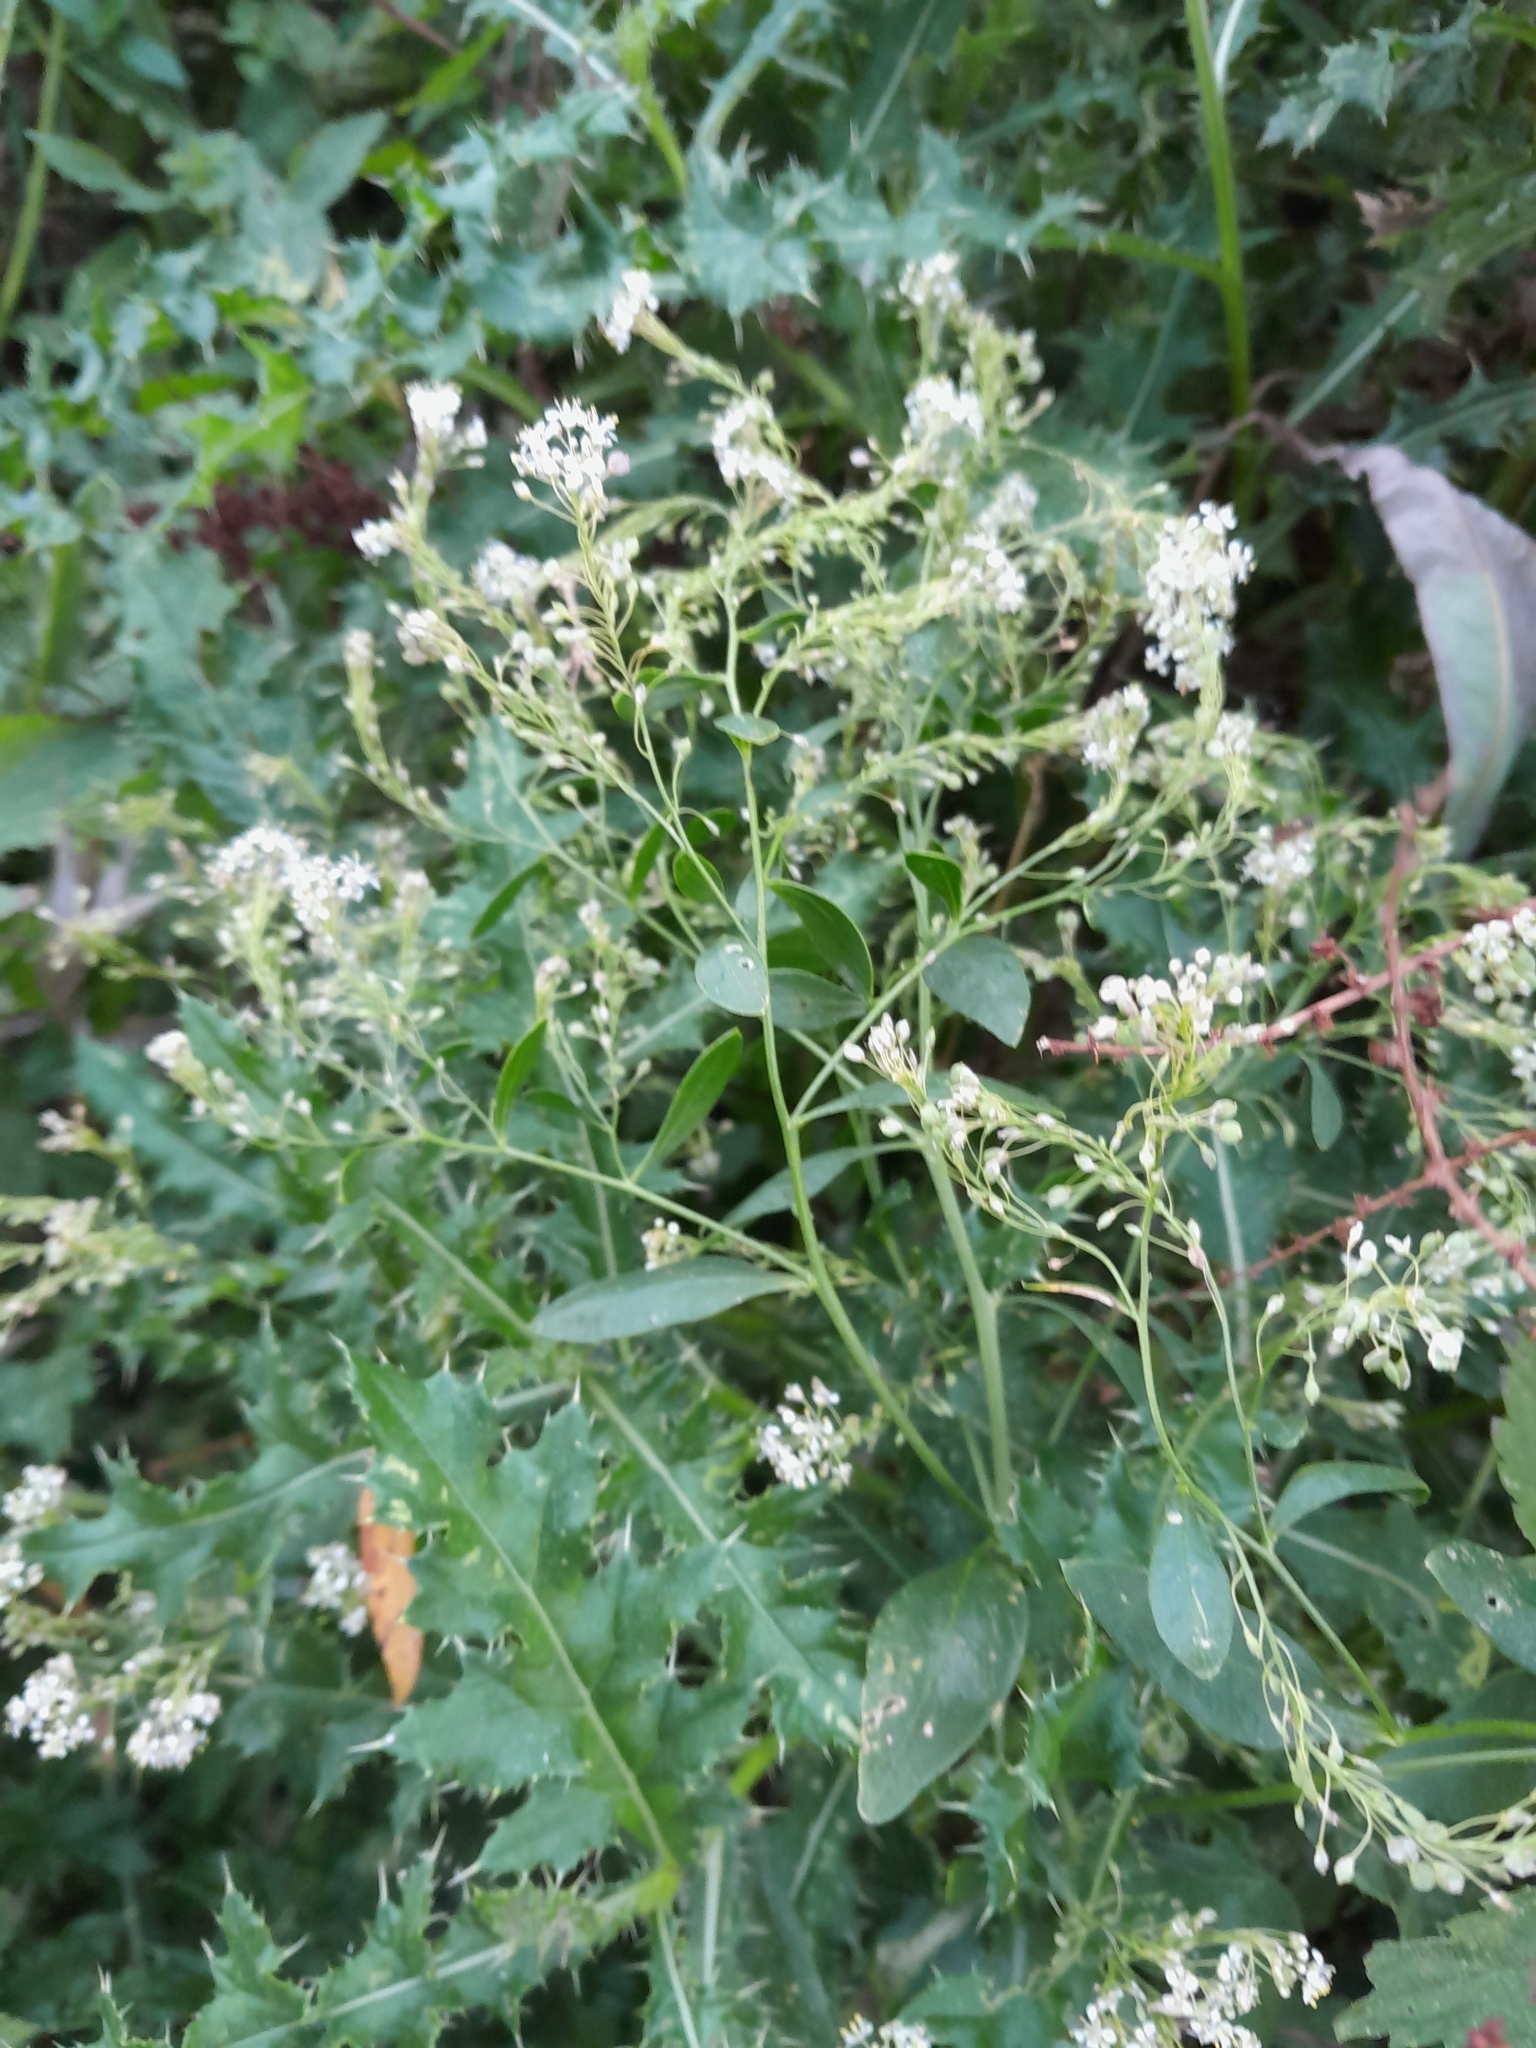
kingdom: Plantae
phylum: Tracheophyta
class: Magnoliopsida
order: Brassicales
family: Brassicaceae
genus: Lepidium
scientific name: Lepidium latifolium
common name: Dittander
